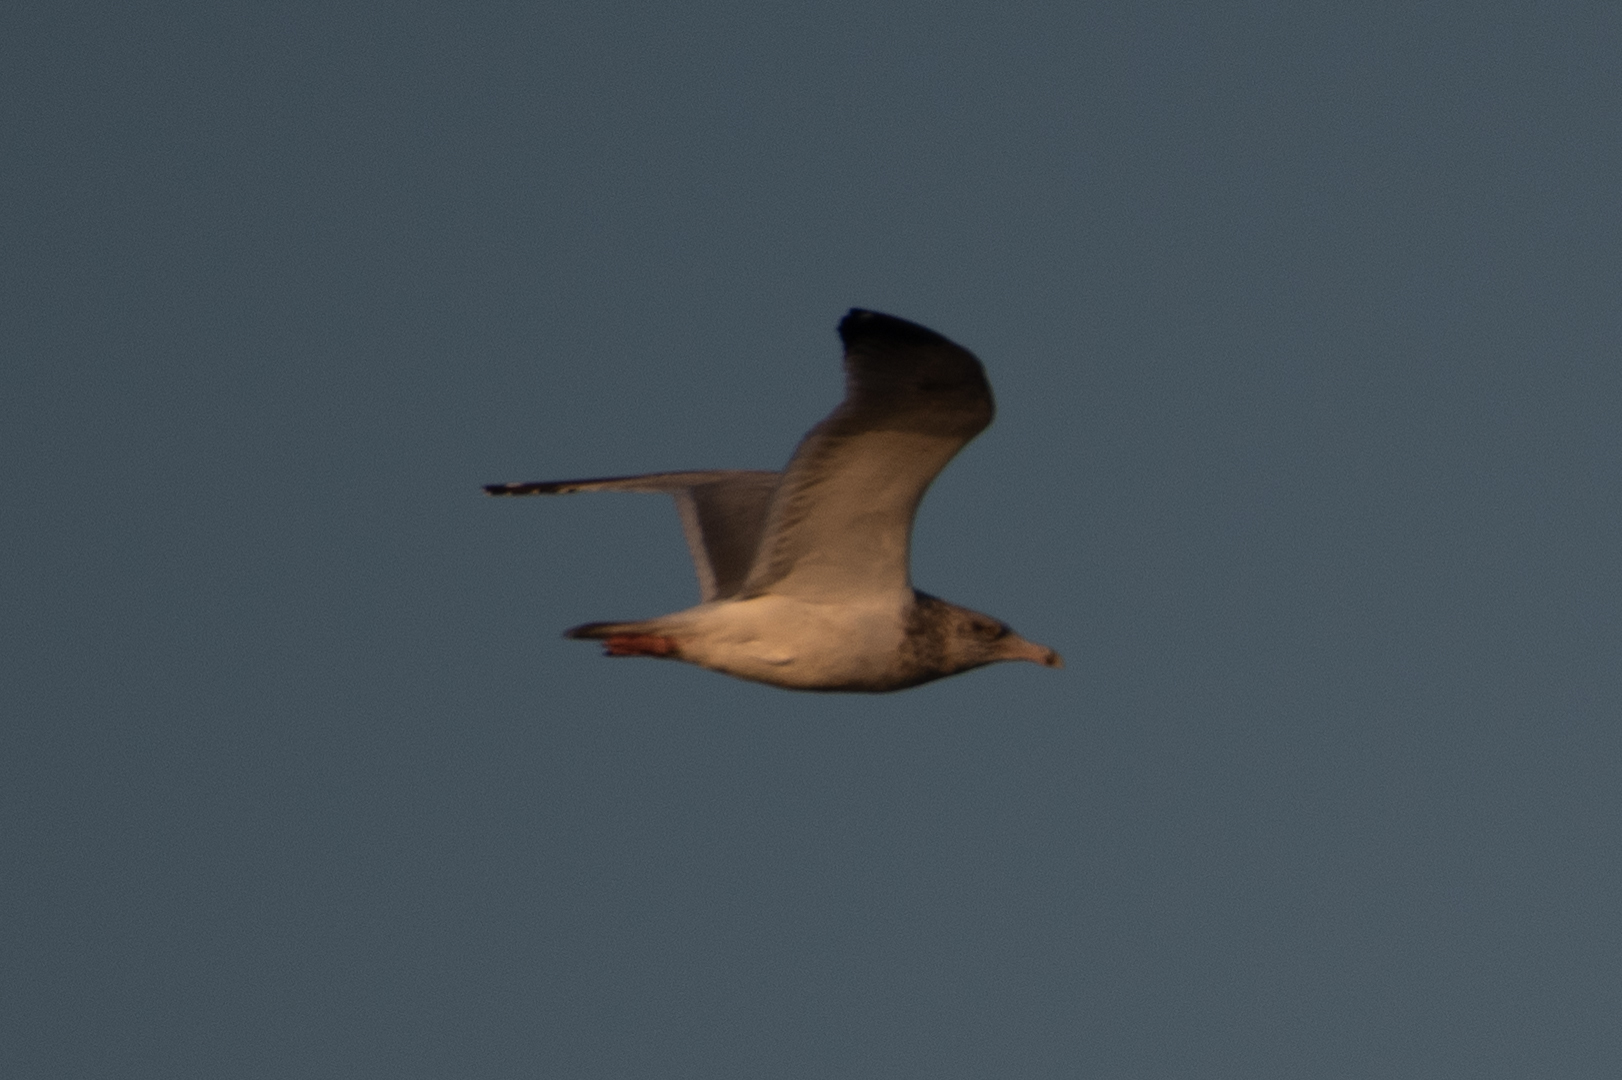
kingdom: Animalia
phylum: Chordata
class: Aves
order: Charadriiformes
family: Laridae
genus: Larus
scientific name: Larus argentatus
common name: Herring gull
